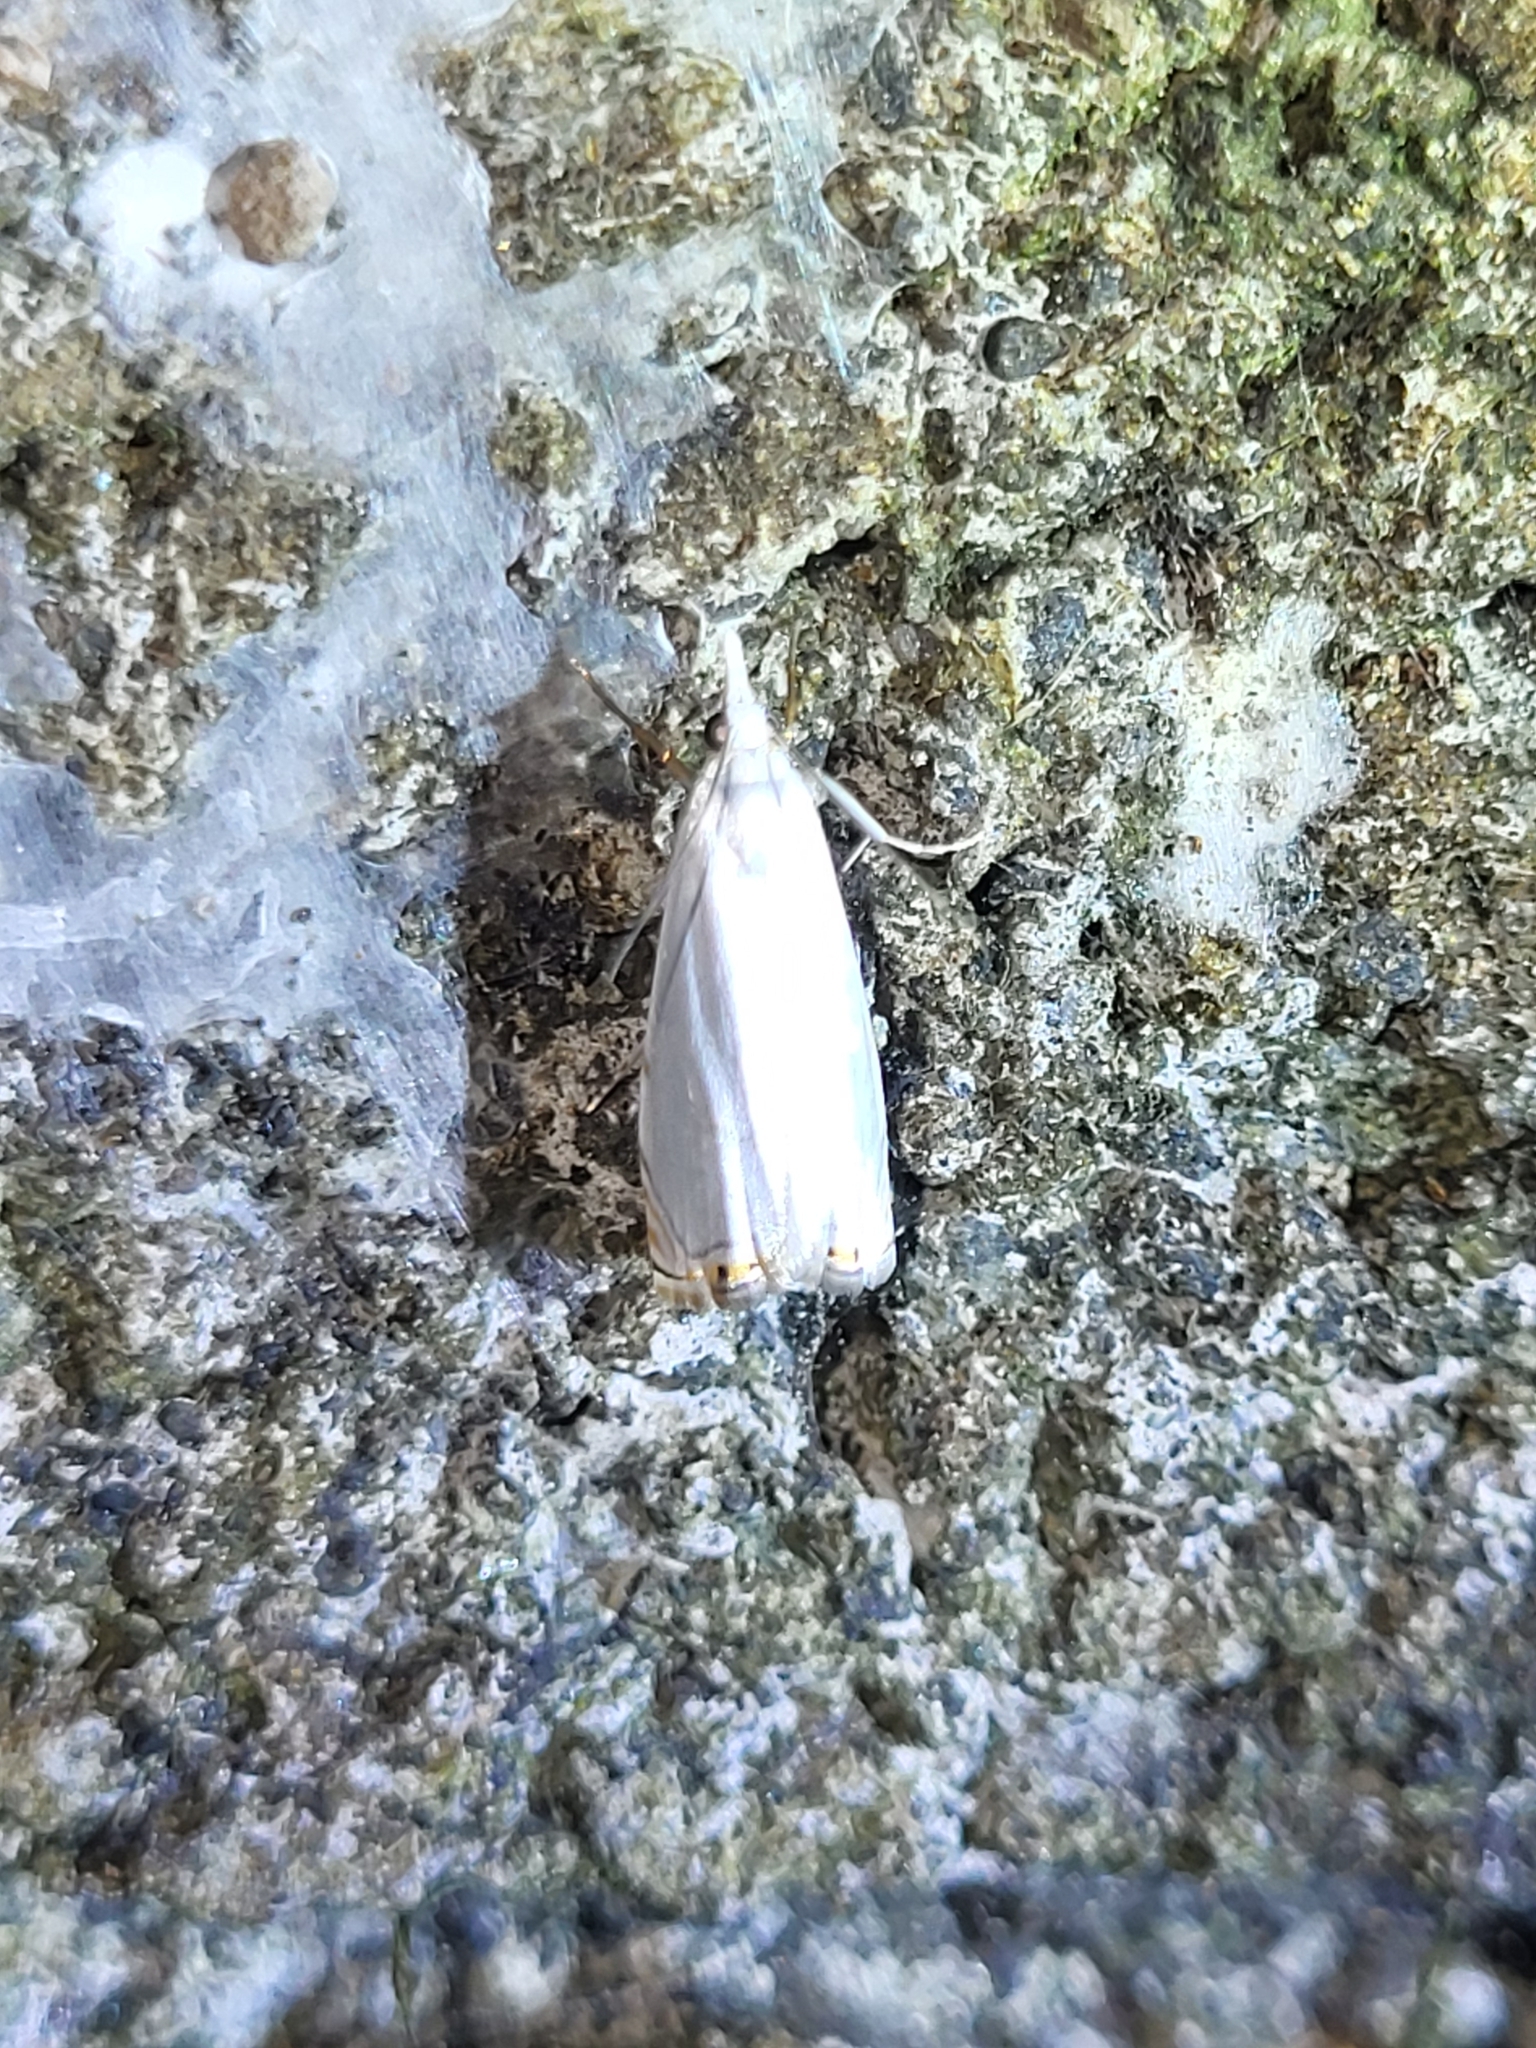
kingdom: Animalia
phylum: Arthropoda
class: Insecta
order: Lepidoptera
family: Crambidae
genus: Microcrambon
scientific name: Microcrambon paphiellus
